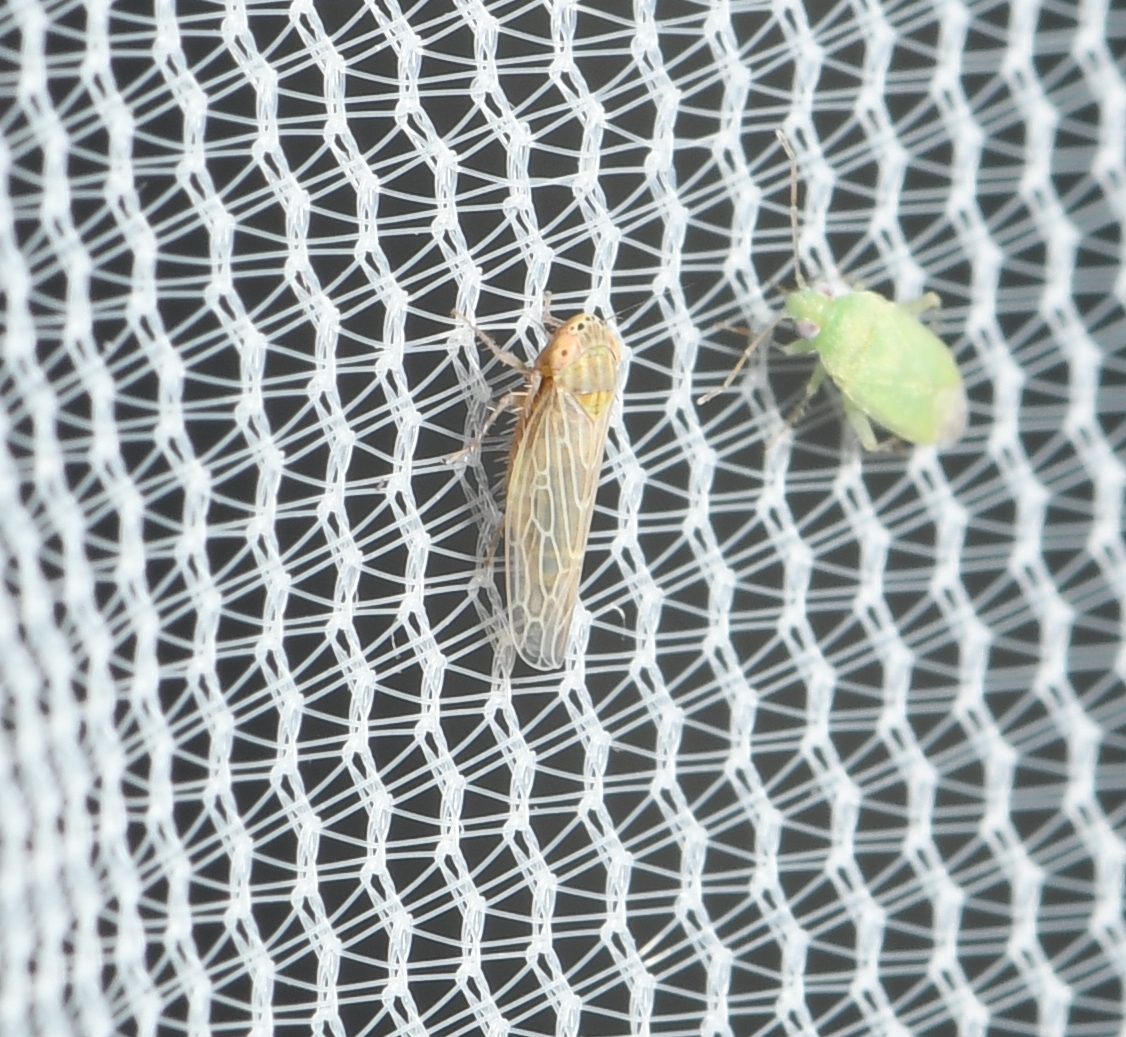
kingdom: Animalia
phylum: Arthropoda
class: Insecta
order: Hemiptera
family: Cicadellidae
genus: Graminella
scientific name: Graminella sonora
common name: Lesser lawn leafhopper
